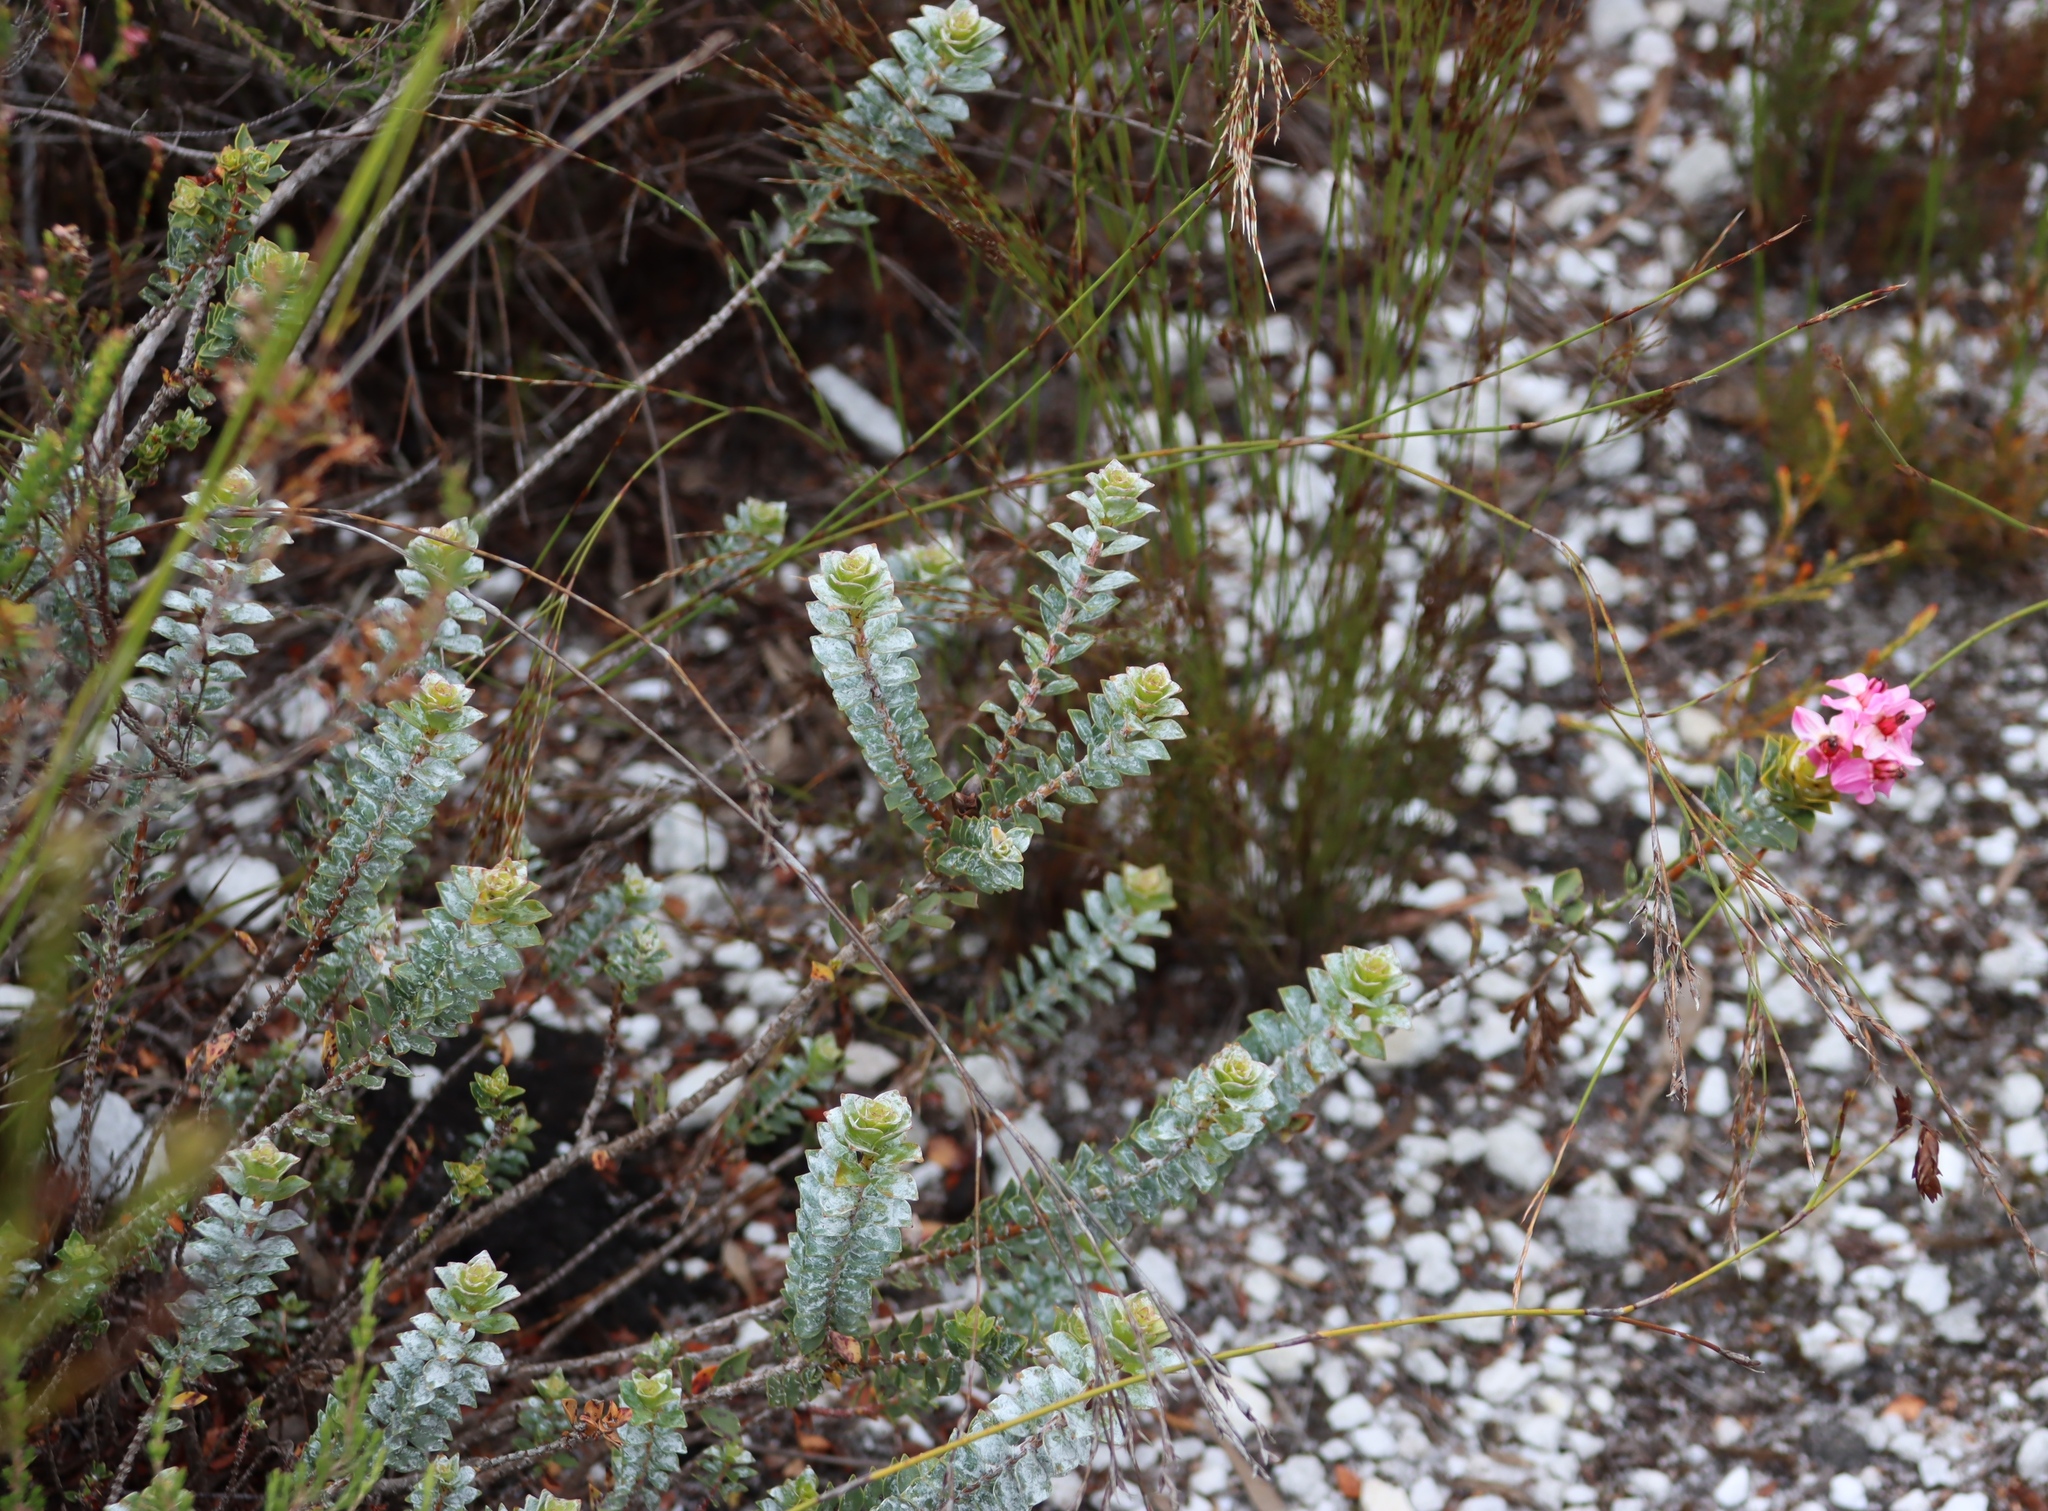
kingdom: Plantae
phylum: Tracheophyta
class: Magnoliopsida
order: Myrtales
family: Penaeaceae
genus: Saltera
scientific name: Saltera sarcocolla
